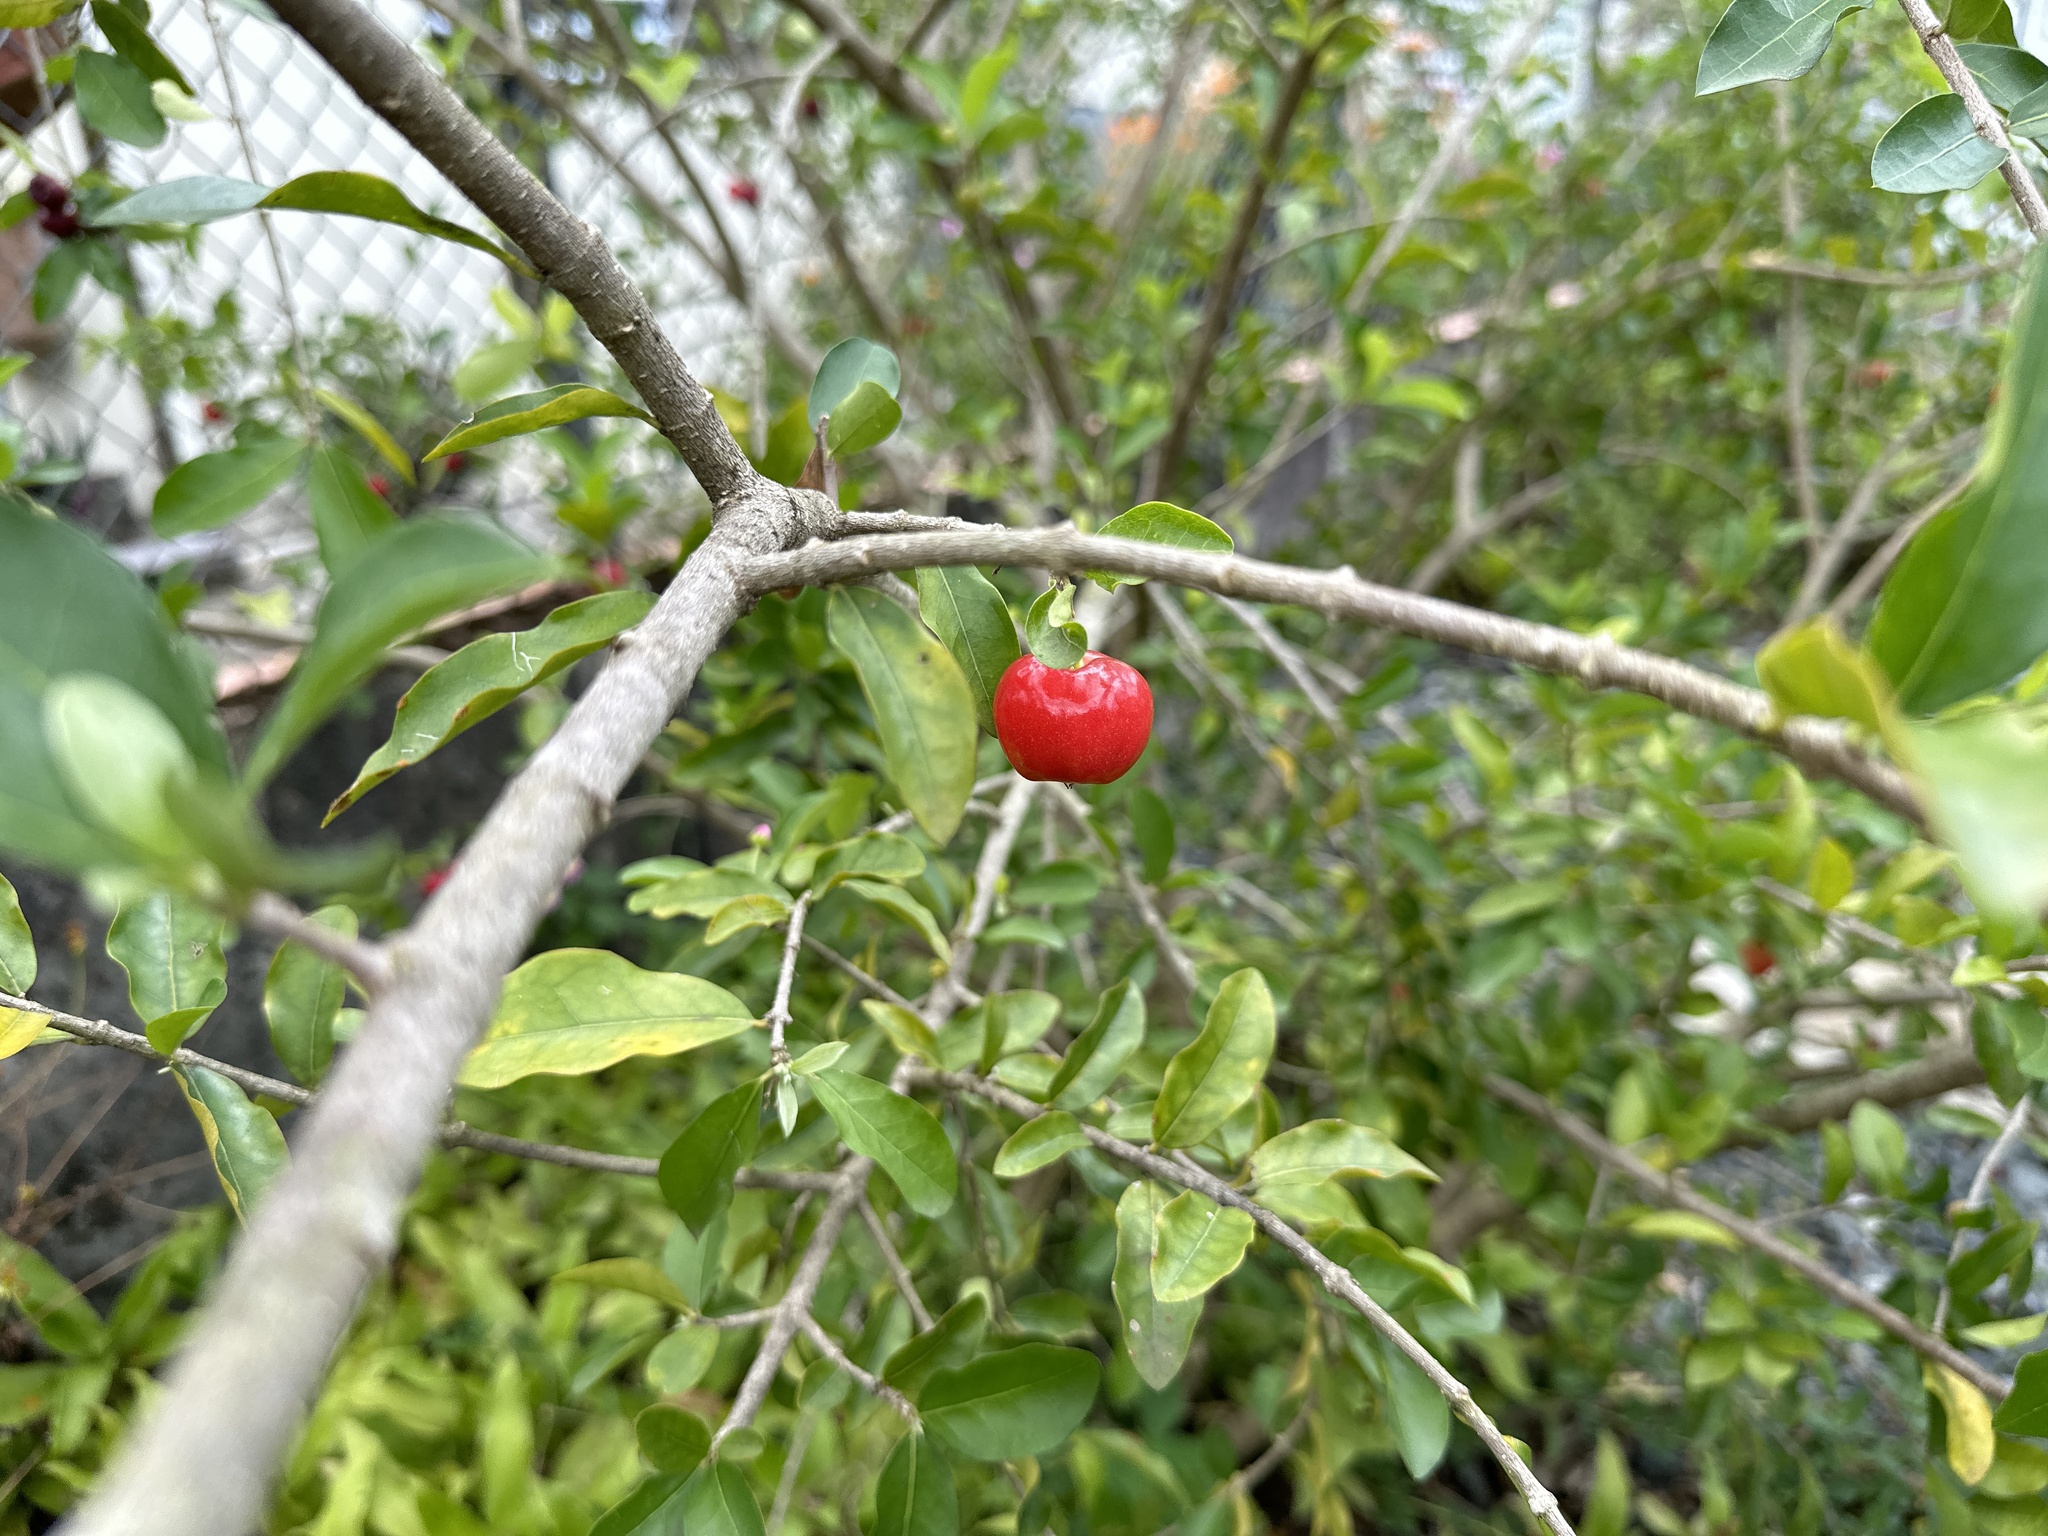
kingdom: Plantae
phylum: Tracheophyta
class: Magnoliopsida
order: Malpighiales
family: Malpighiaceae
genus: Malpighia
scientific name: Malpighia emarginata
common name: Barbados cherry
